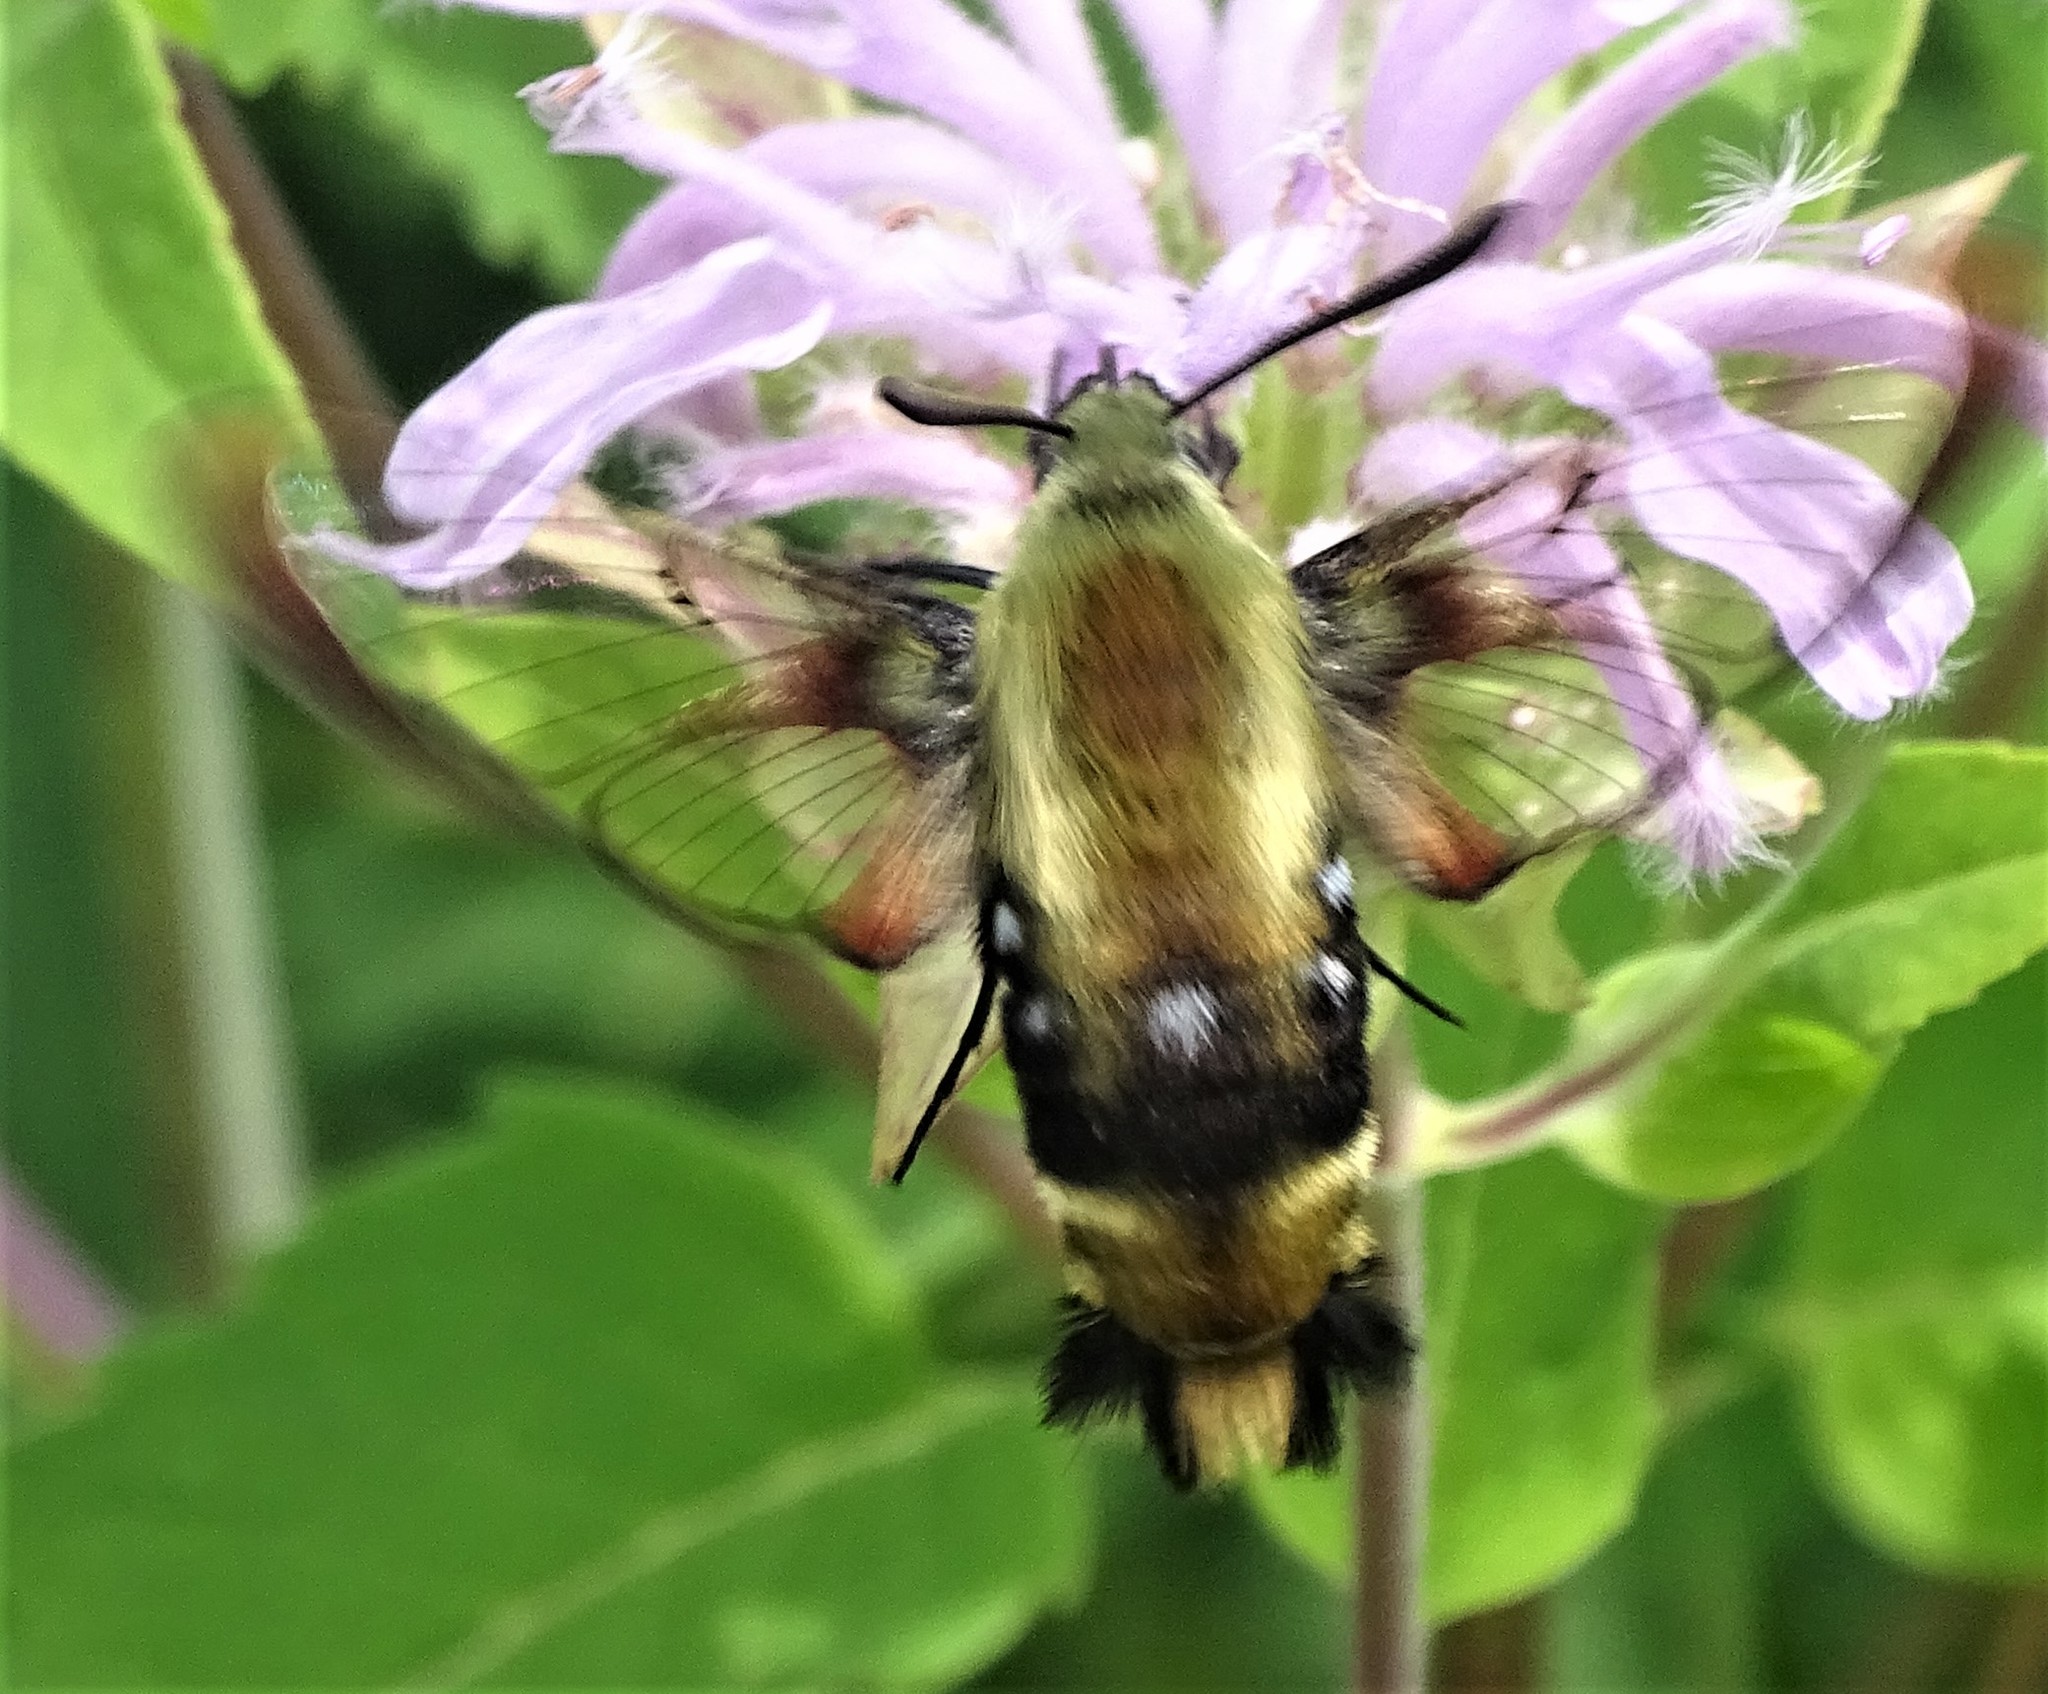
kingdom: Animalia
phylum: Arthropoda
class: Insecta
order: Lepidoptera
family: Sphingidae
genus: Hemaris
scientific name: Hemaris diffinis
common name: Bumblebee moth
